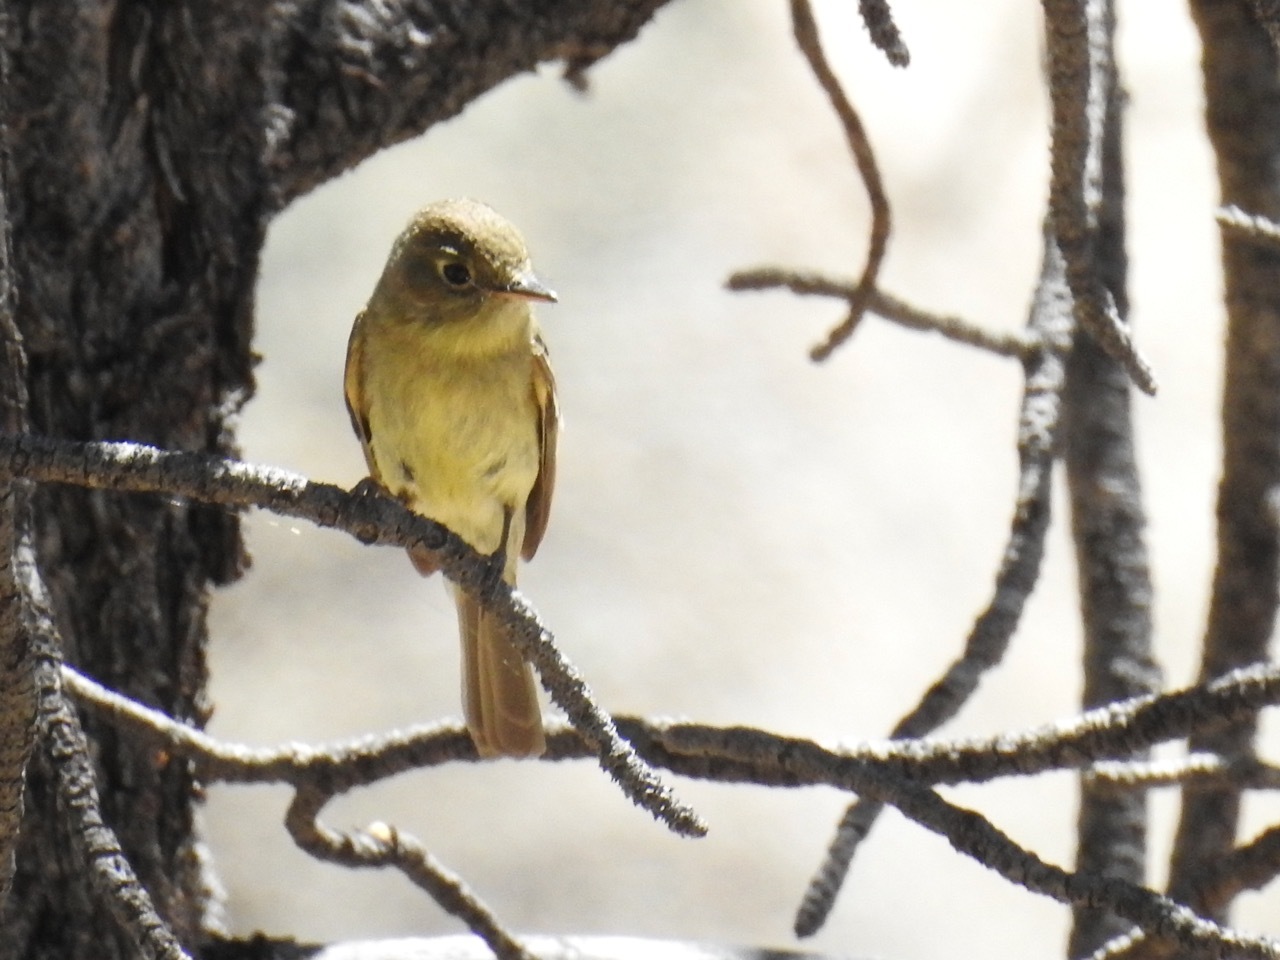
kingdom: Animalia
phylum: Chordata
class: Aves
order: Passeriformes
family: Tyrannidae
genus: Empidonax
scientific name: Empidonax difficilis
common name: Pacific-slope flycatcher
